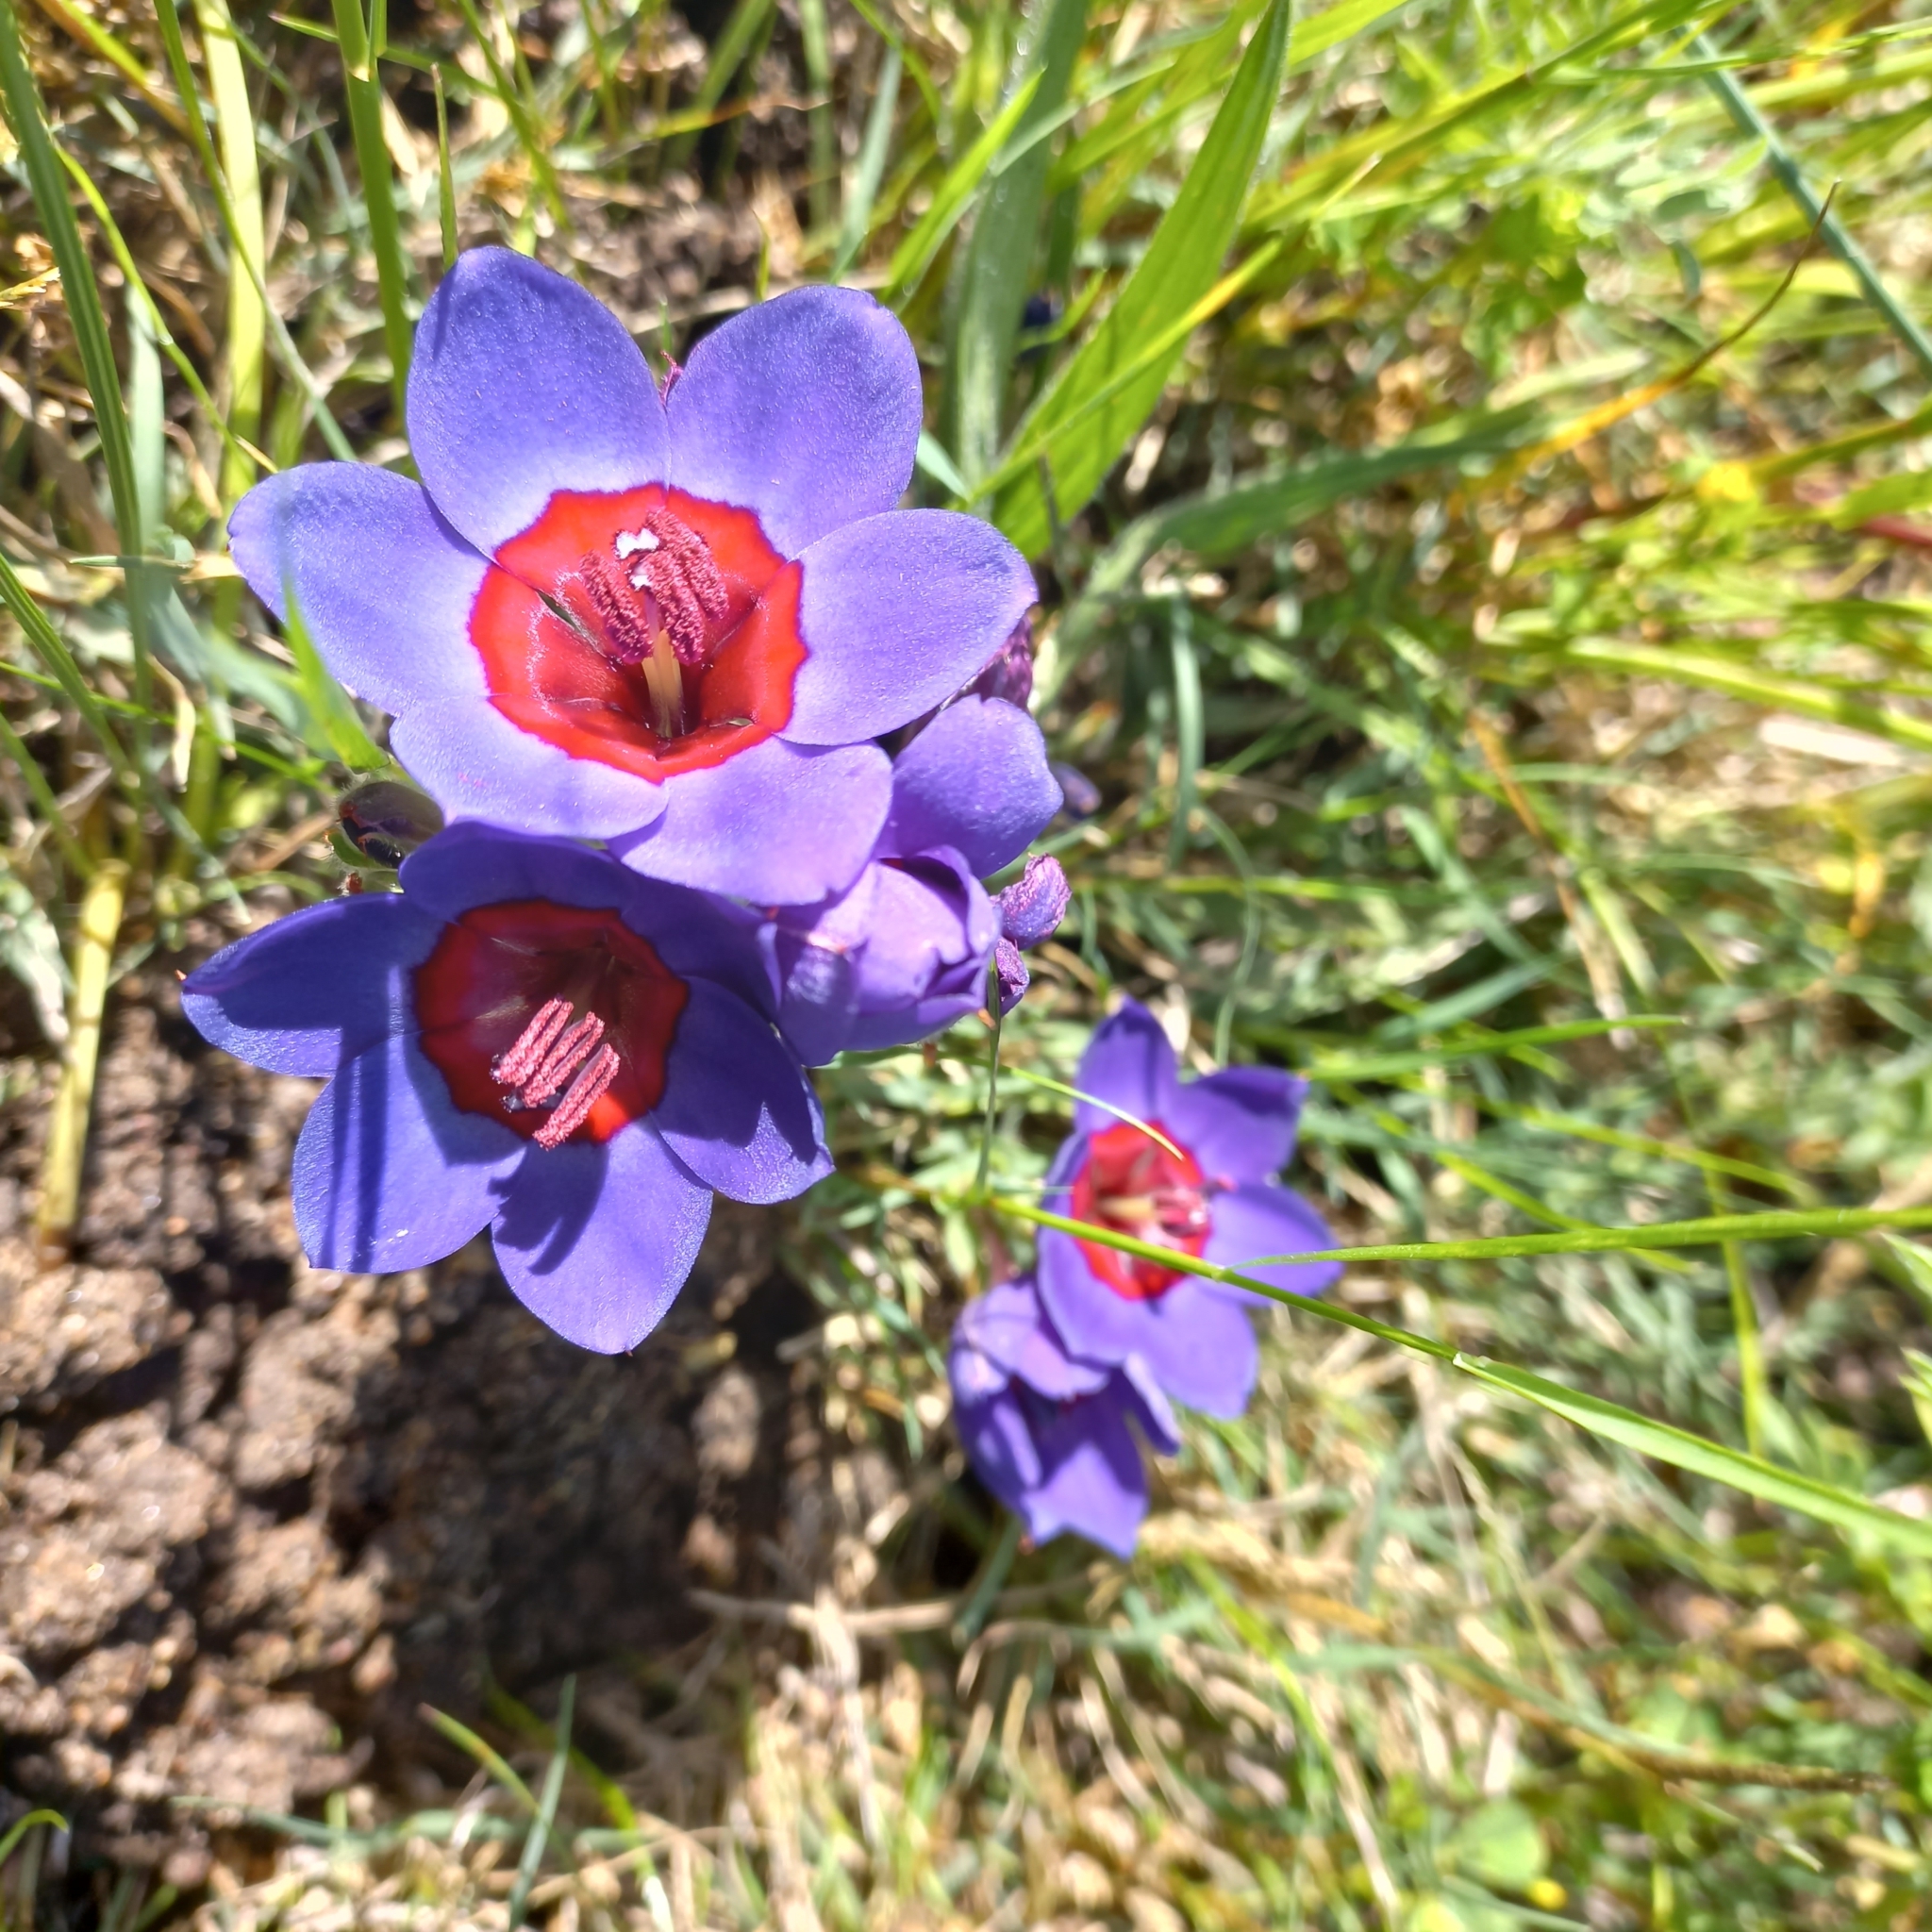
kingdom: Plantae
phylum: Tracheophyta
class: Liliopsida
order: Asparagales
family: Iridaceae
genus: Babiana
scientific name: Babiana rubrocyanea
